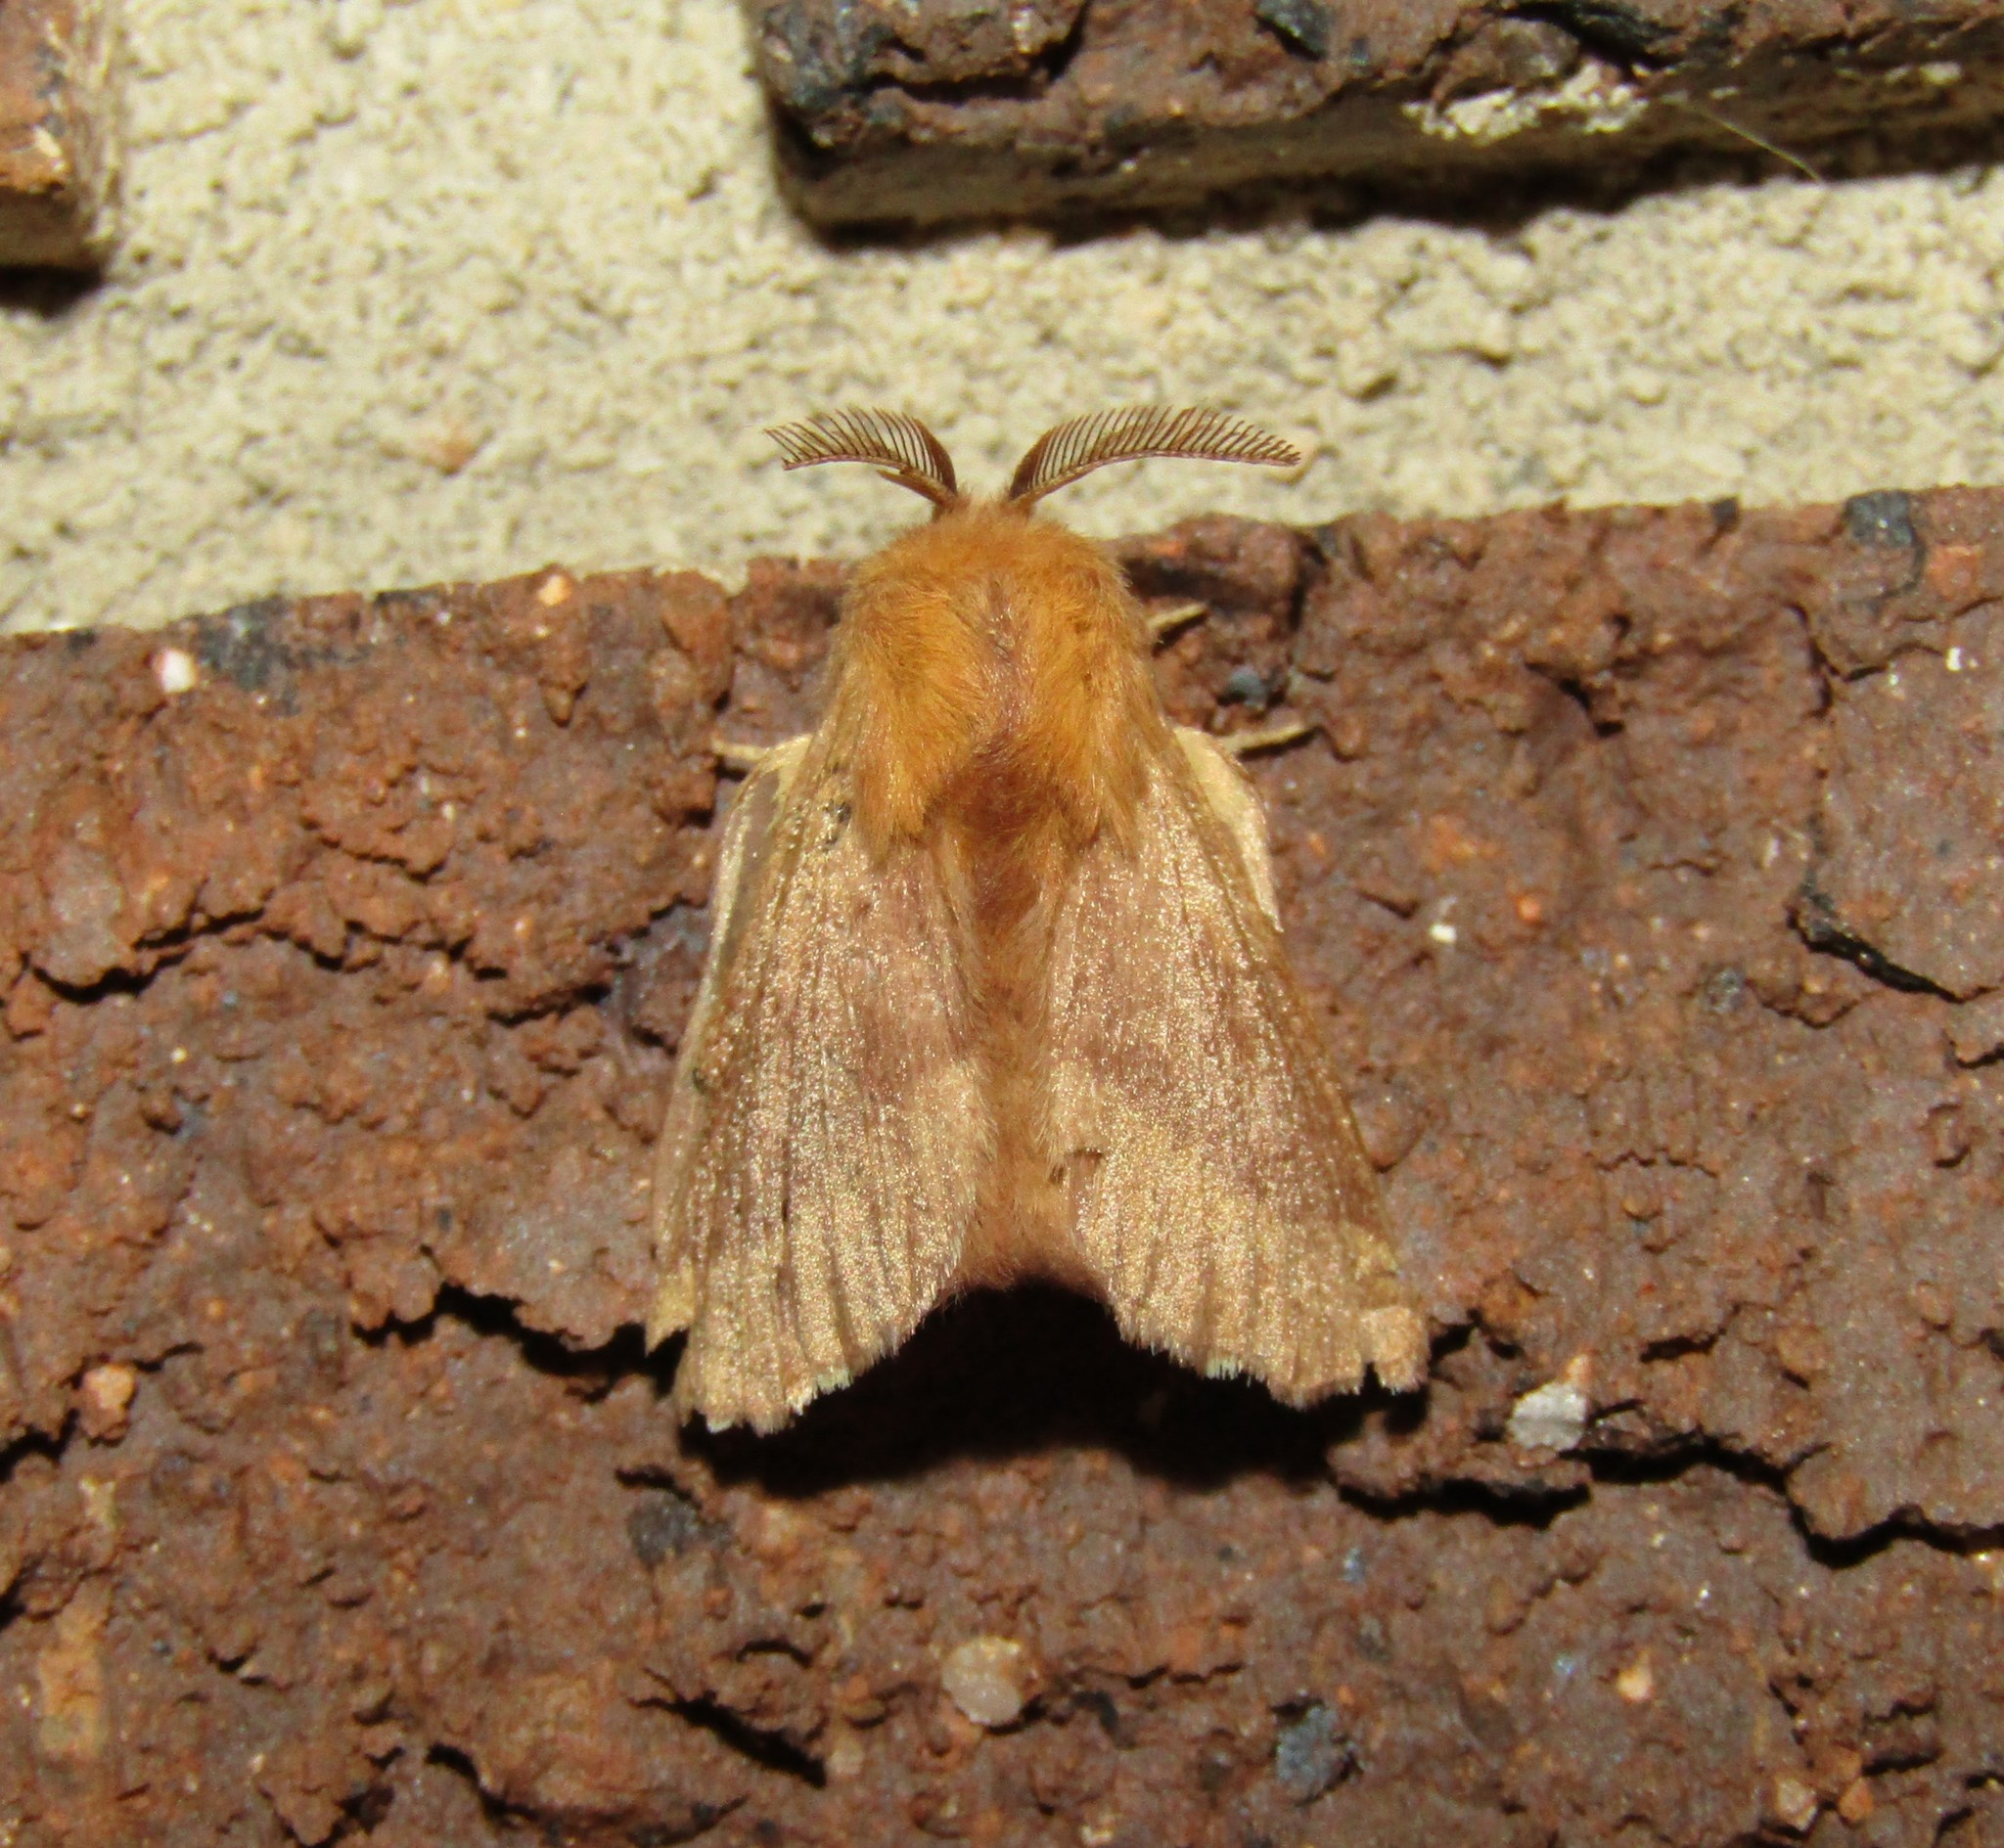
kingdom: Animalia
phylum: Arthropoda
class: Insecta
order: Lepidoptera
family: Lasiocampidae
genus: Malacosoma
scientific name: Malacosoma disstria
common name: Forest tent caterpillar
